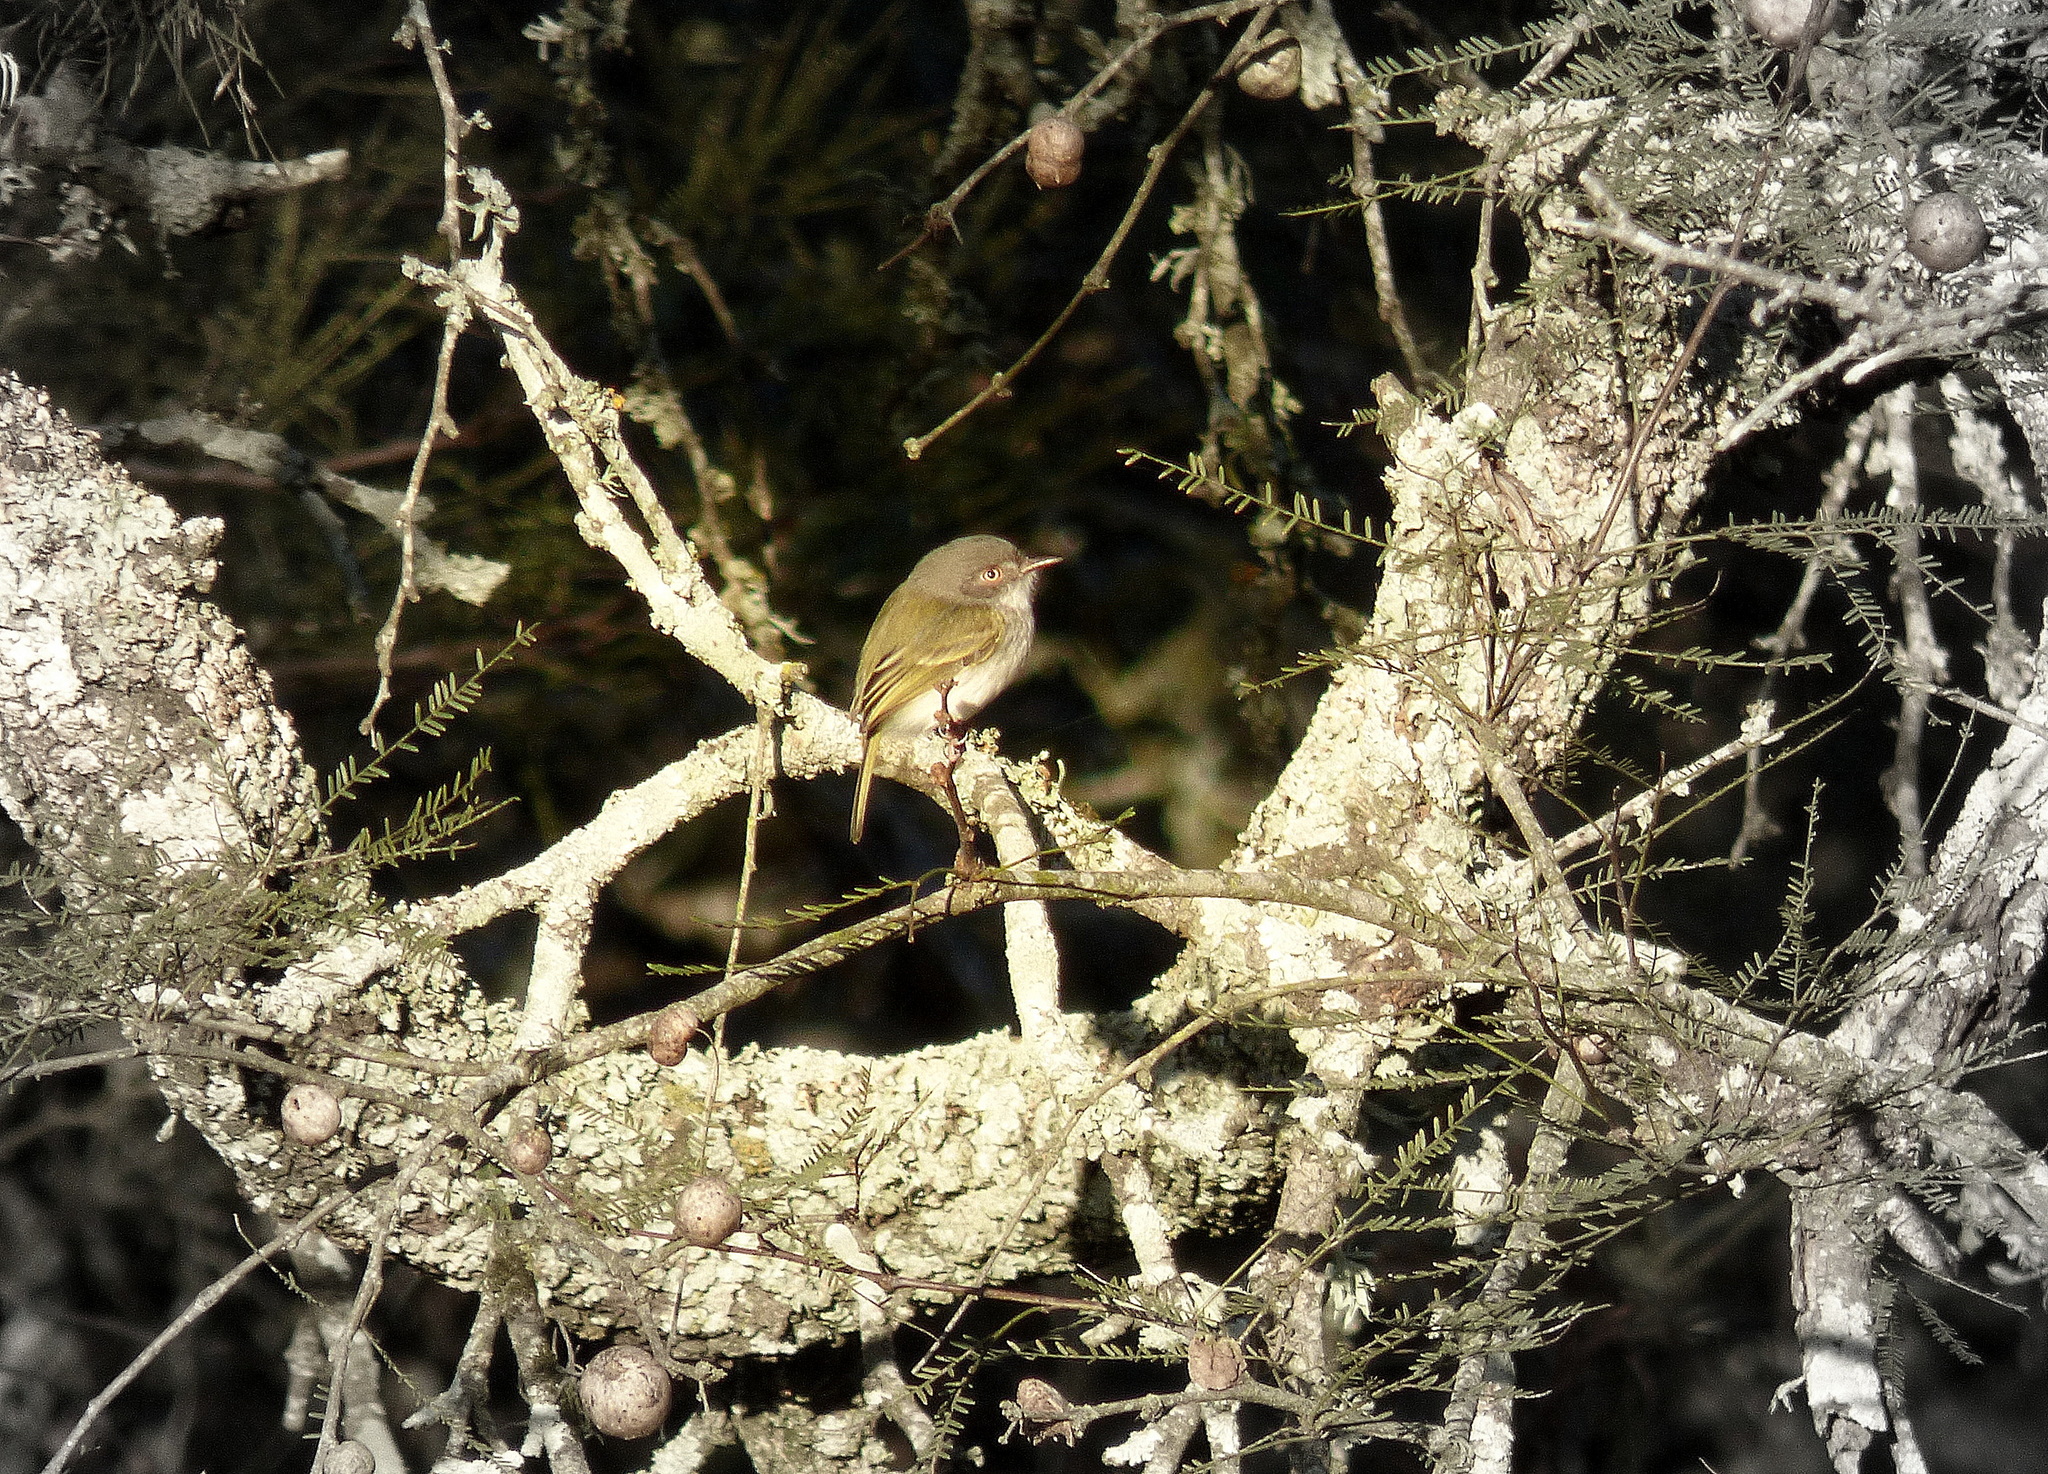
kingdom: Animalia
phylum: Chordata
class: Aves
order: Passeriformes
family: Tyrannidae
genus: Hemitriccus
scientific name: Hemitriccus margaritaceiventer
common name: Pearly-vented tody-tyrant
